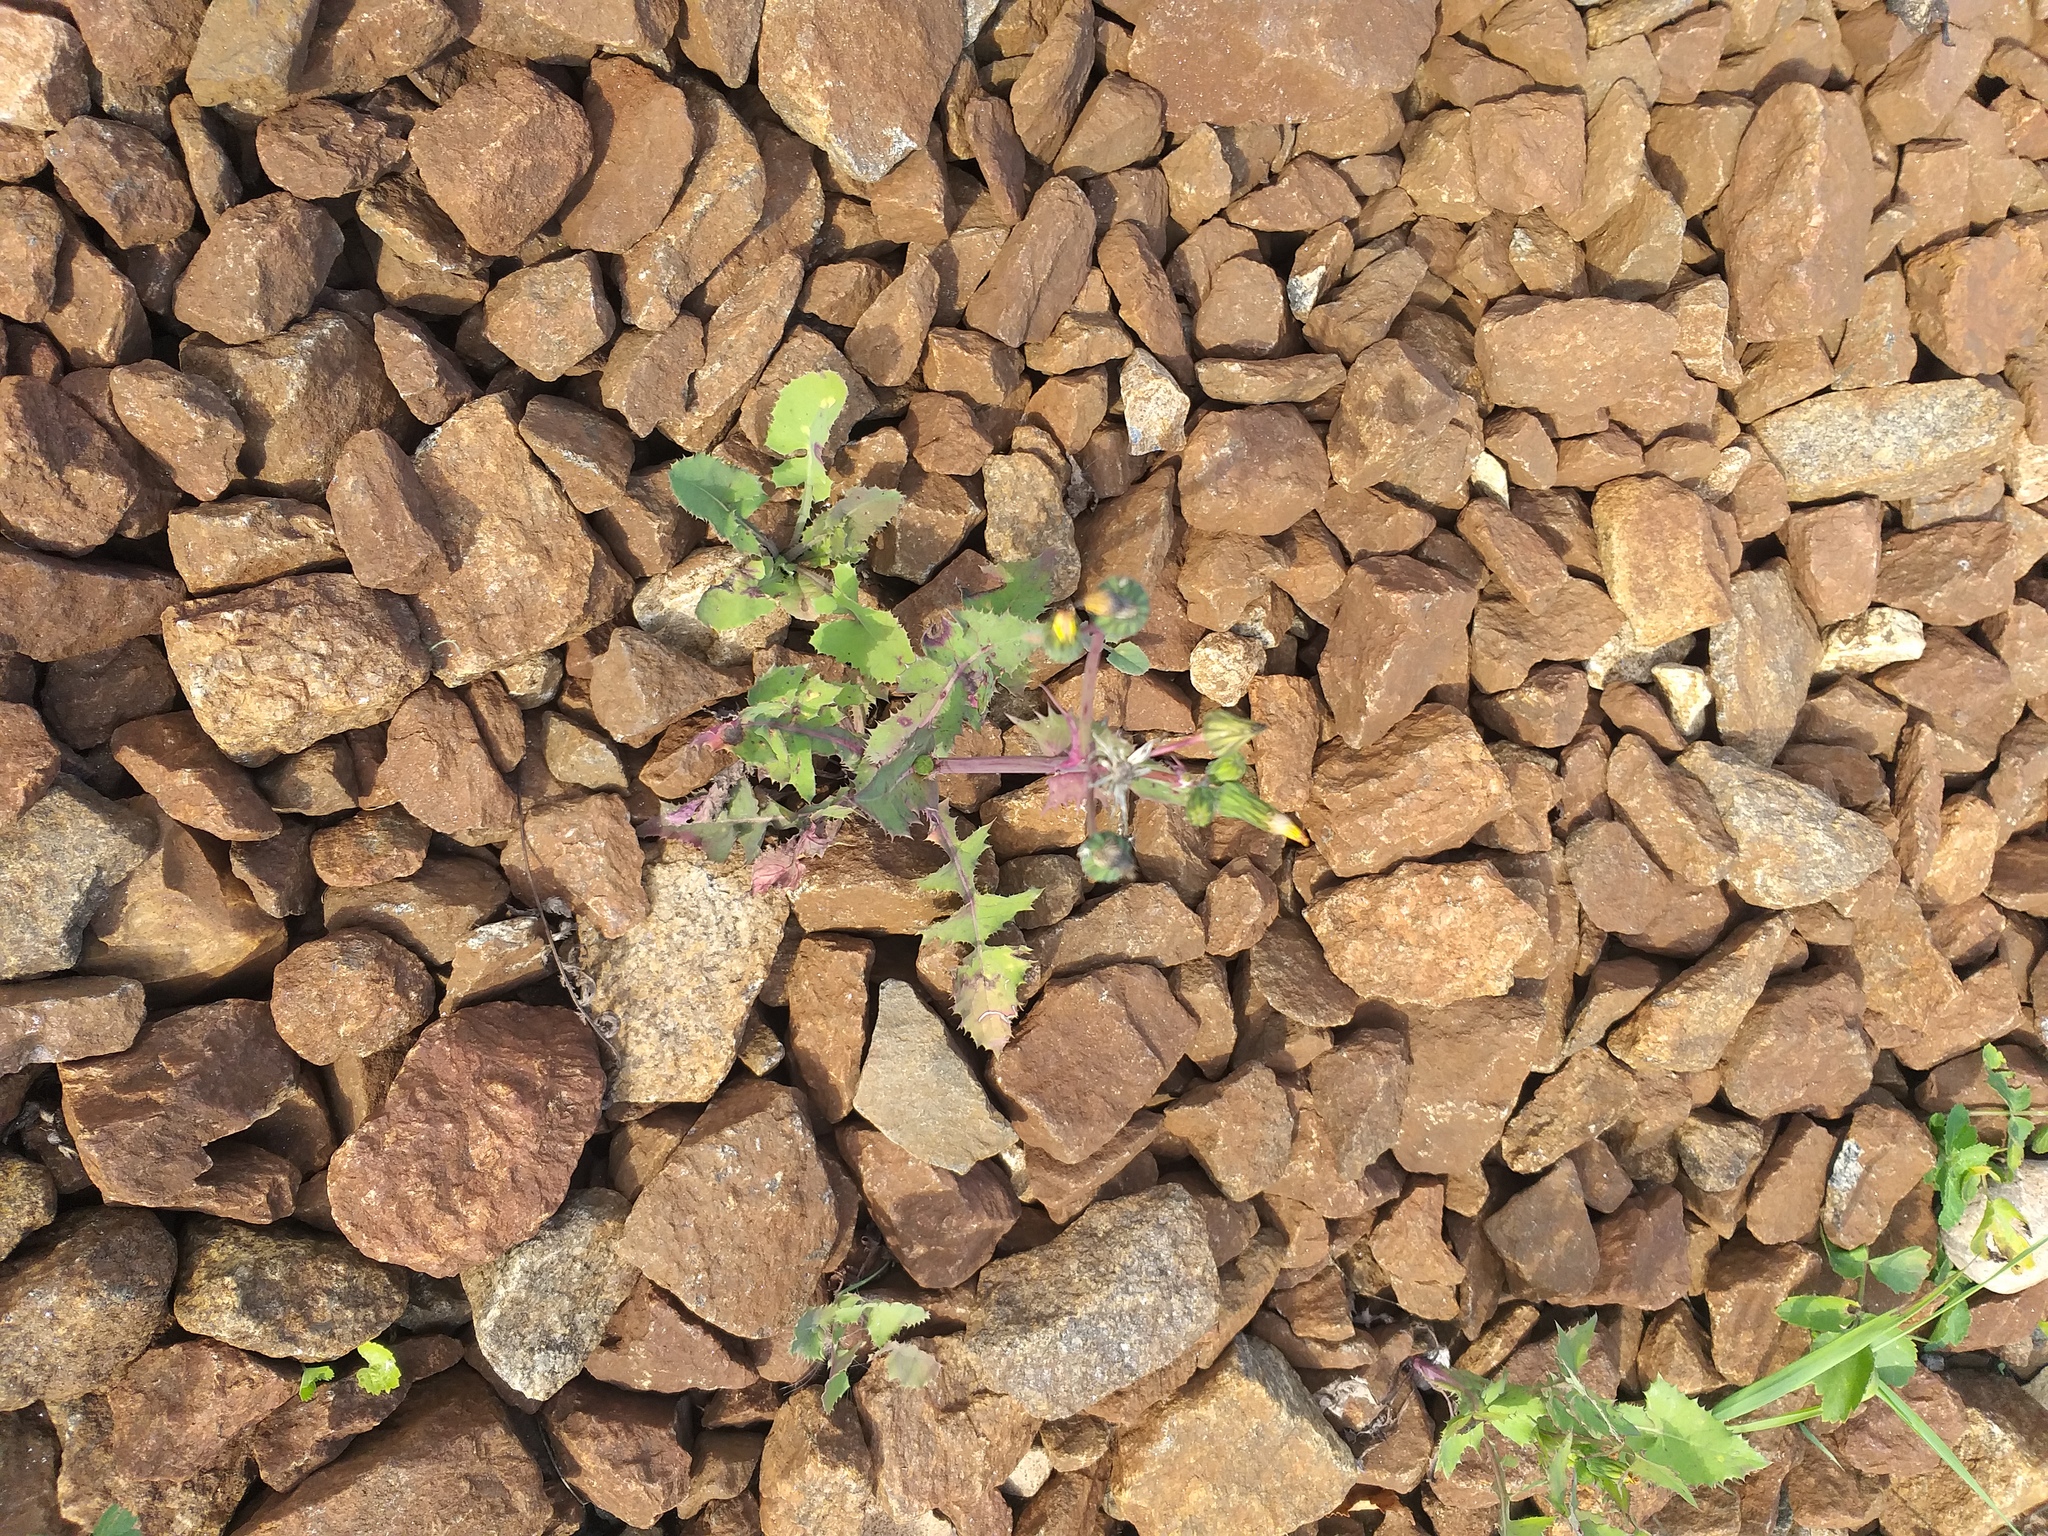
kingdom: Plantae
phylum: Tracheophyta
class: Magnoliopsida
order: Asterales
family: Asteraceae
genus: Sonchus
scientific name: Sonchus oleraceus
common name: Common sowthistle
